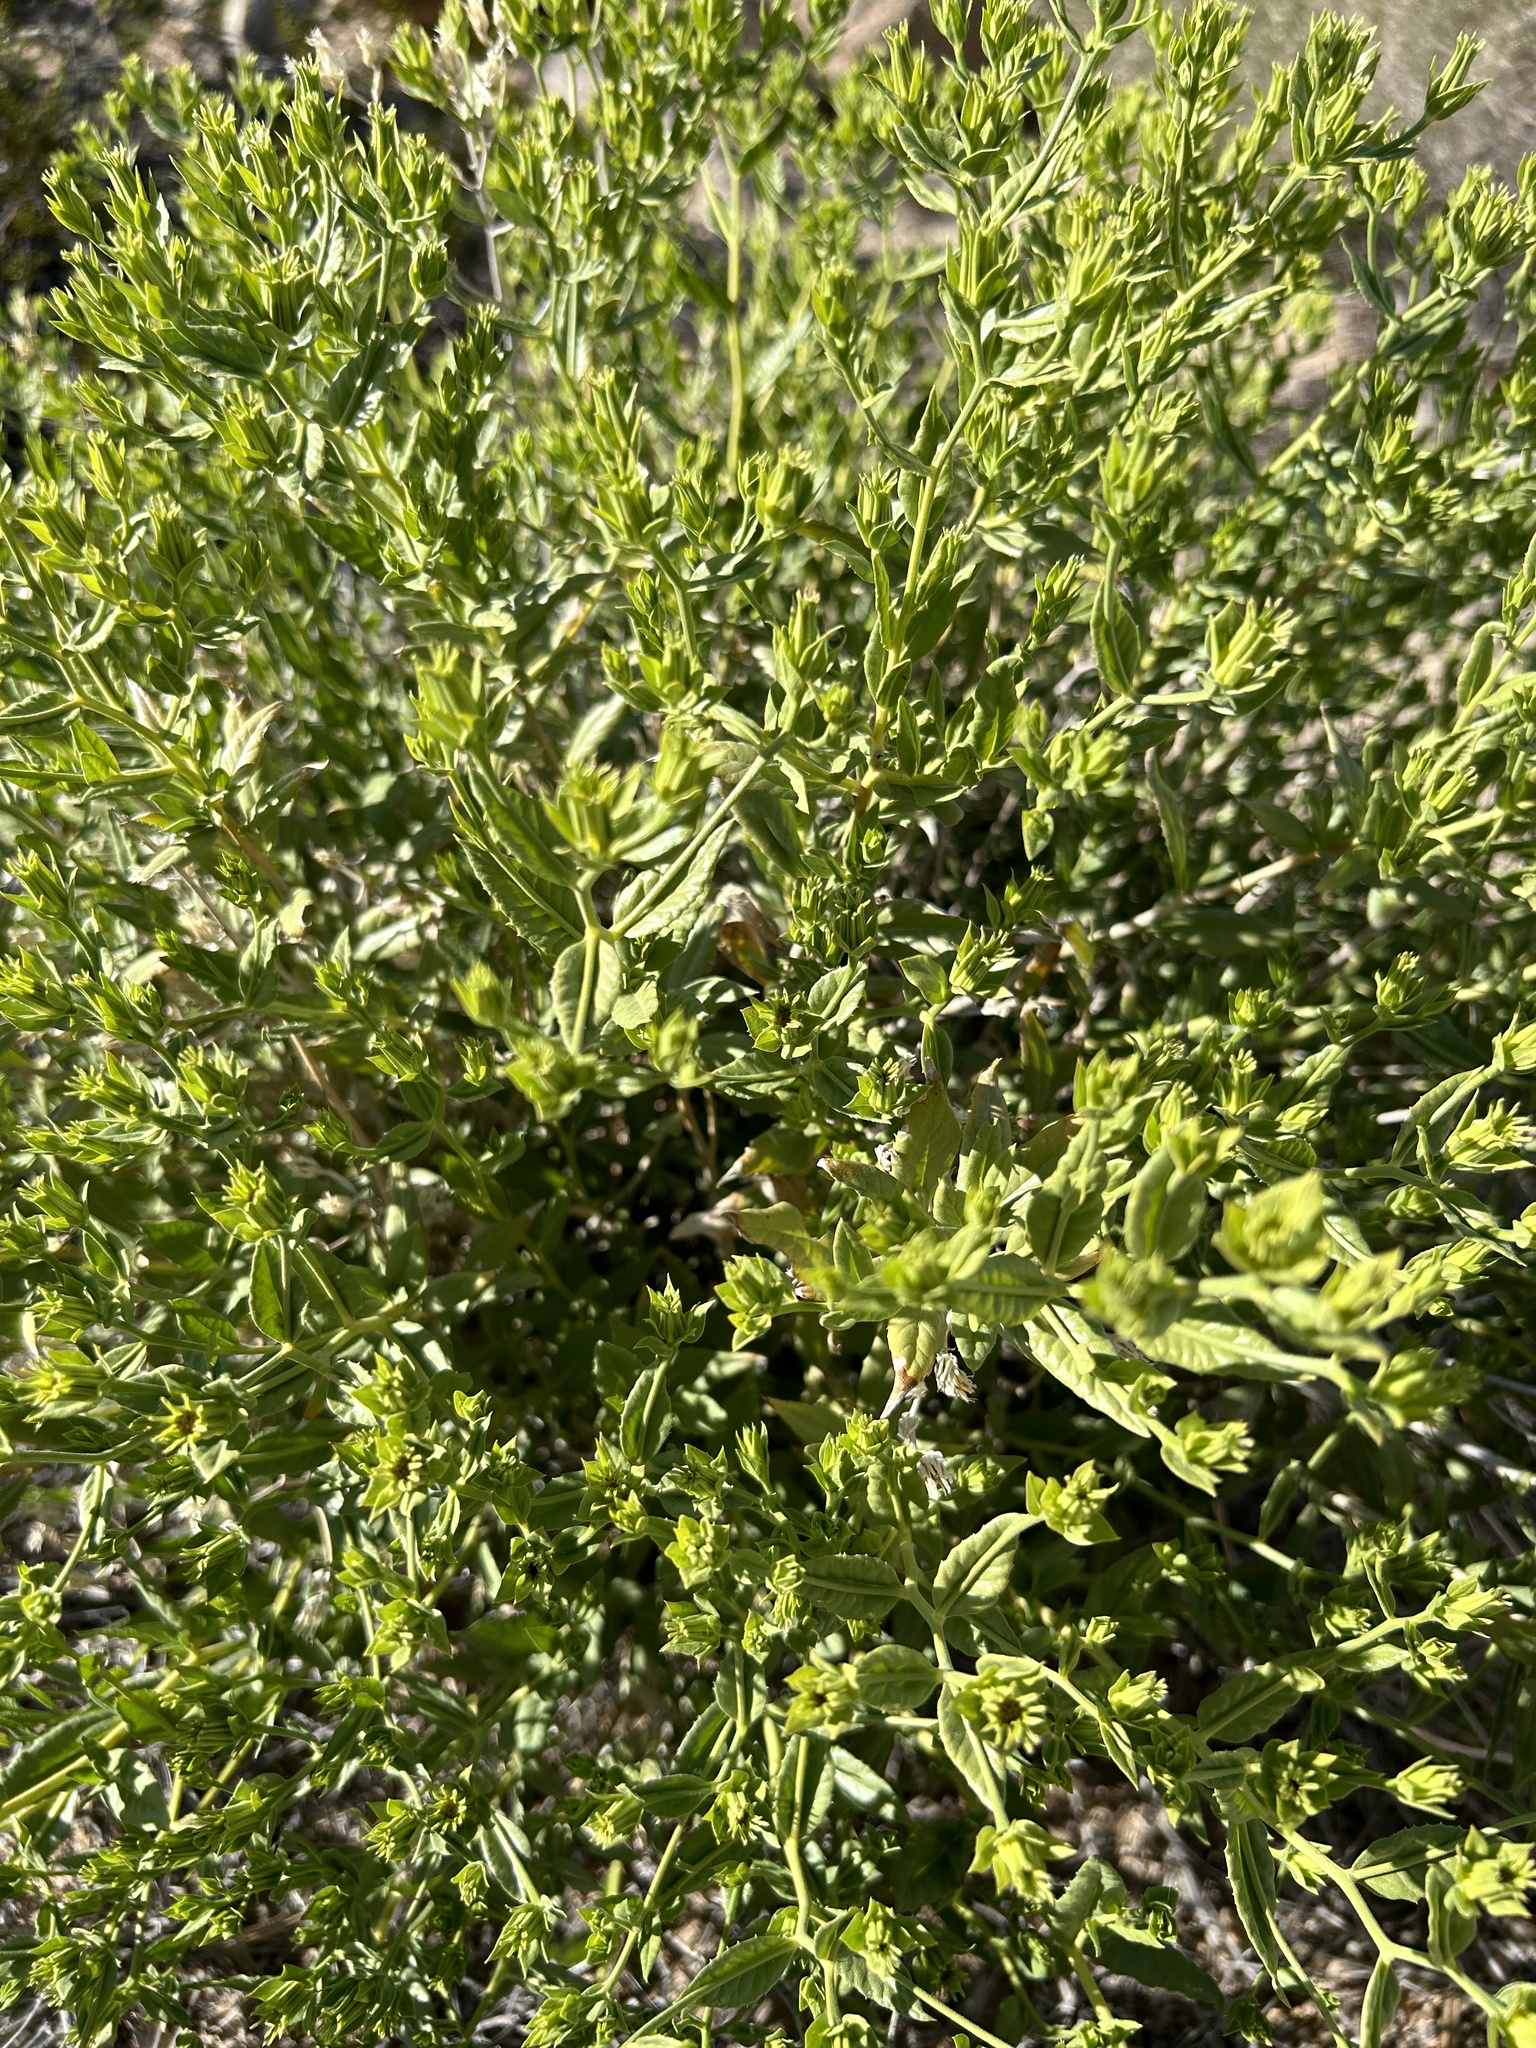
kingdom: Plantae
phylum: Tracheophyta
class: Magnoliopsida
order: Asterales
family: Asteraceae
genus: Trixis
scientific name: Trixis californica
